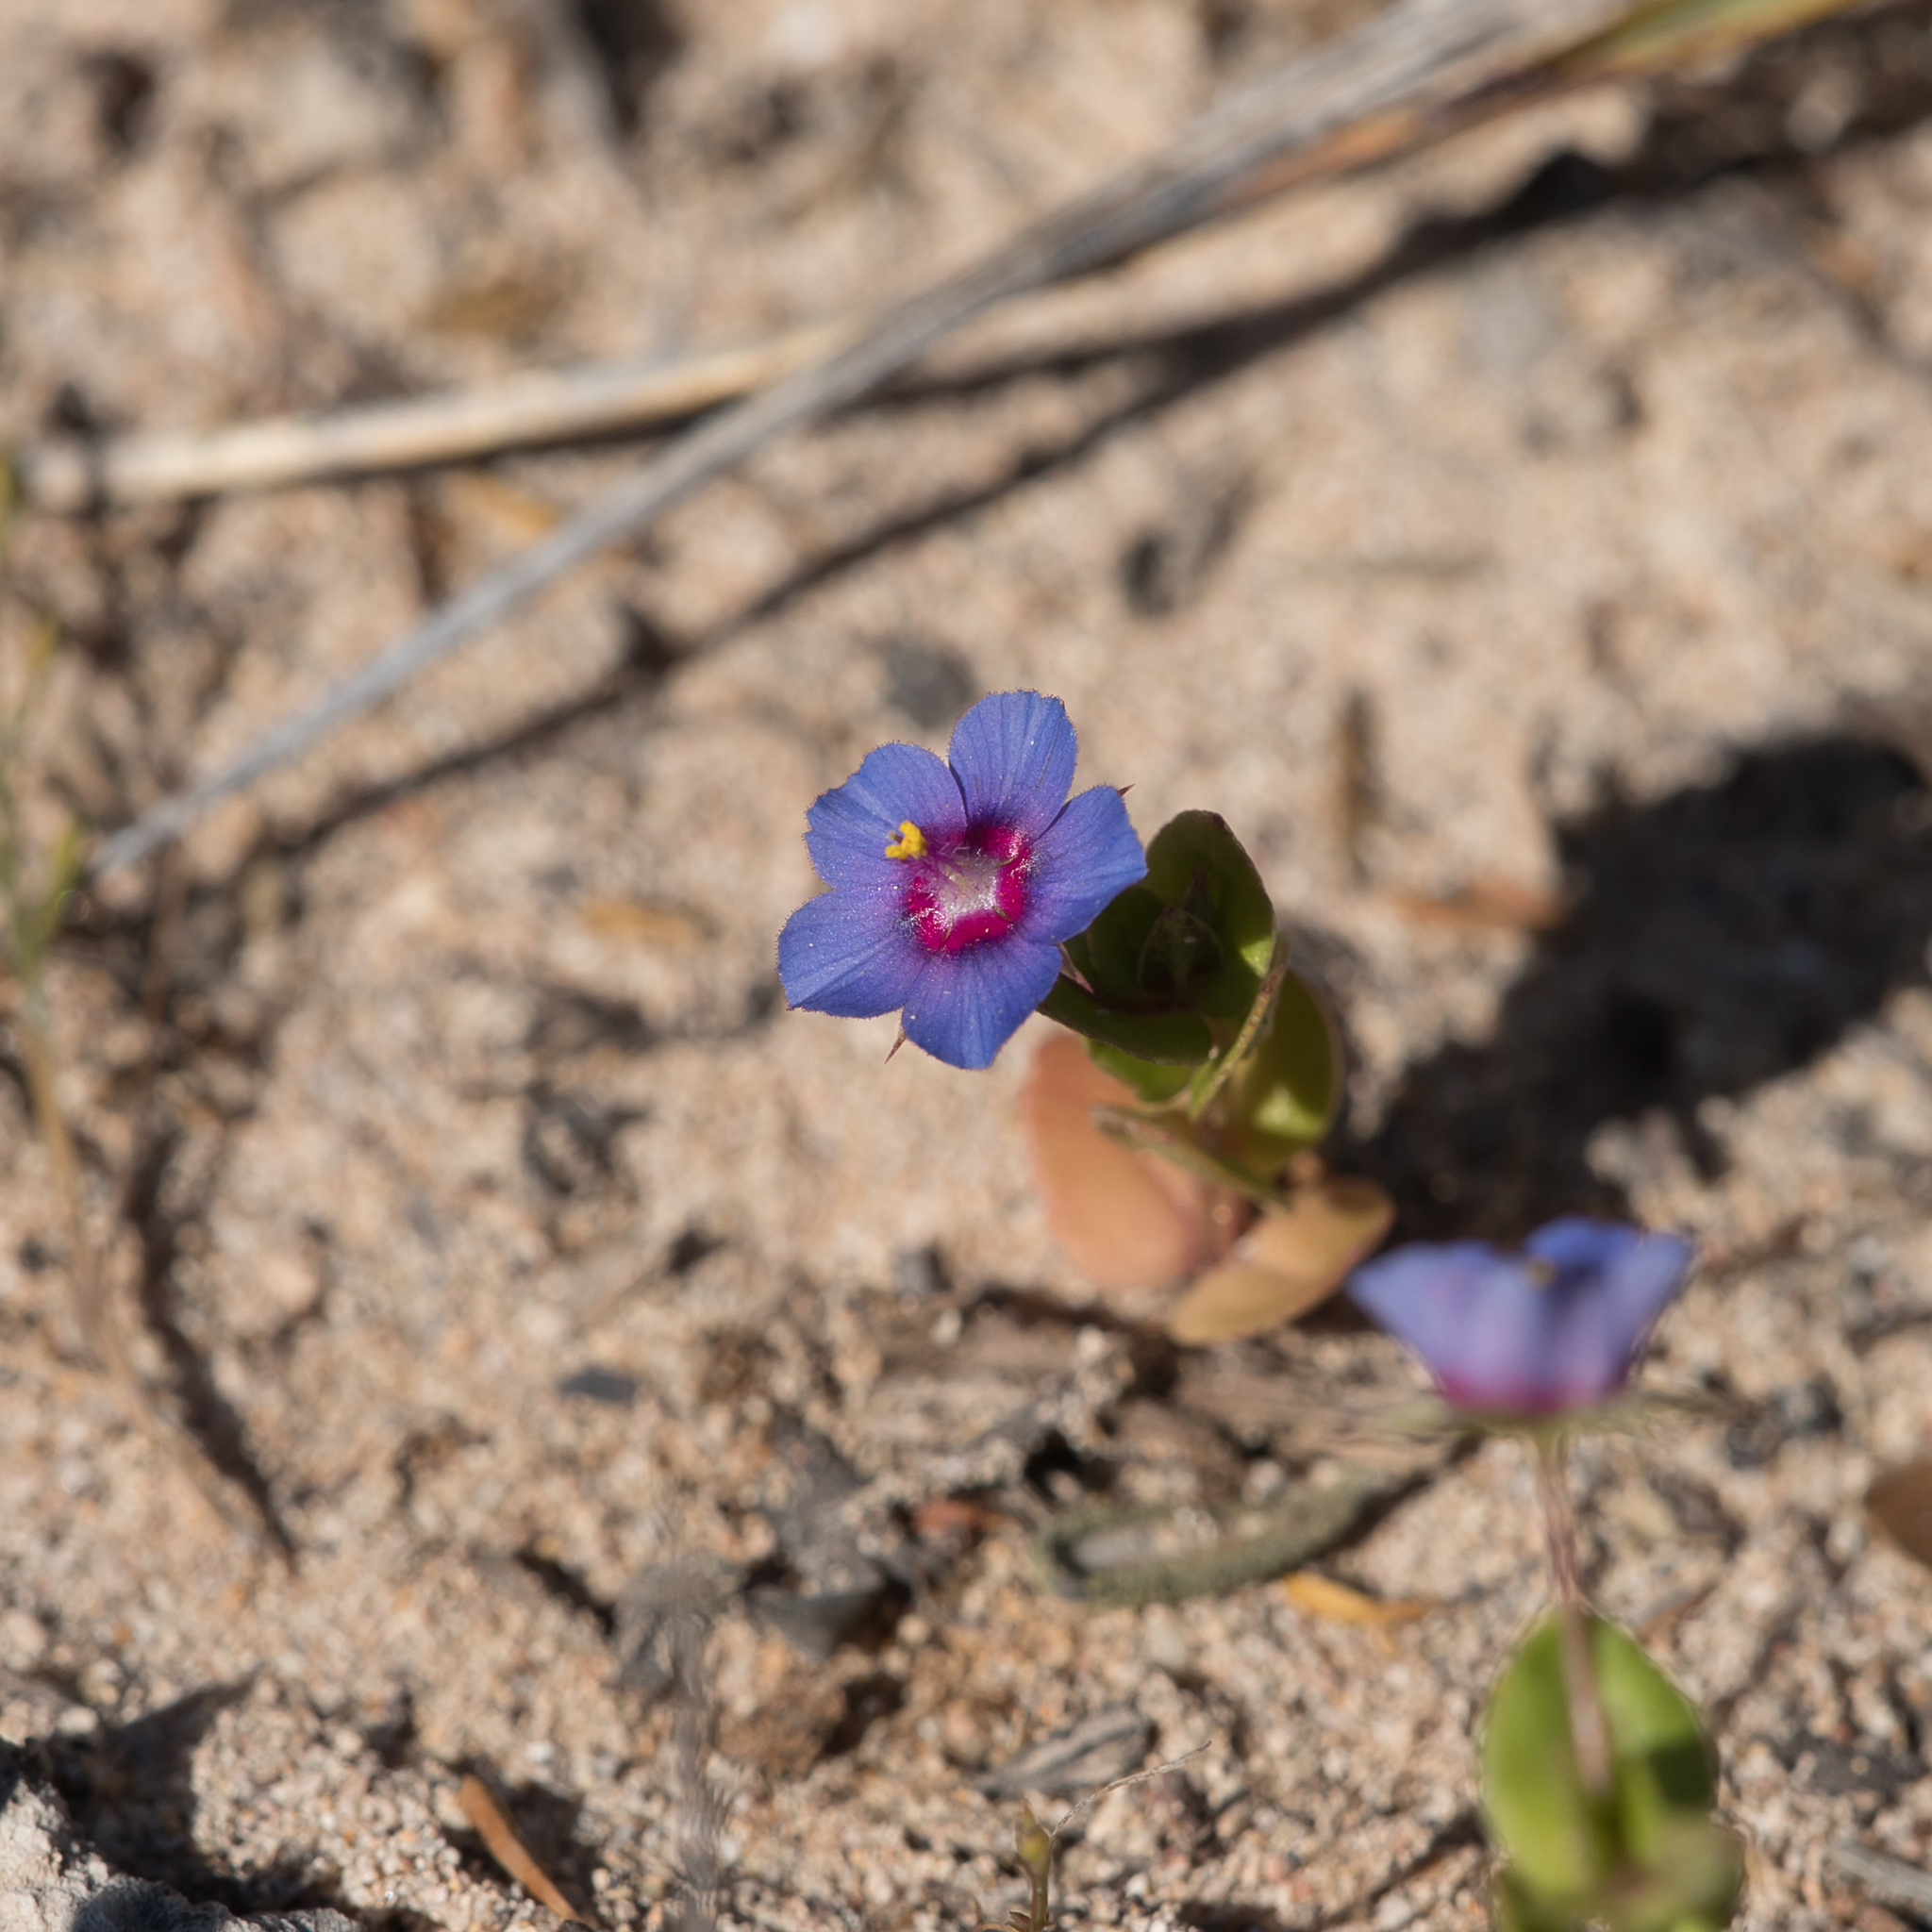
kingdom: Plantae
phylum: Tracheophyta
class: Magnoliopsida
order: Ericales
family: Primulaceae
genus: Lysimachia
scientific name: Lysimachia loeflingii
